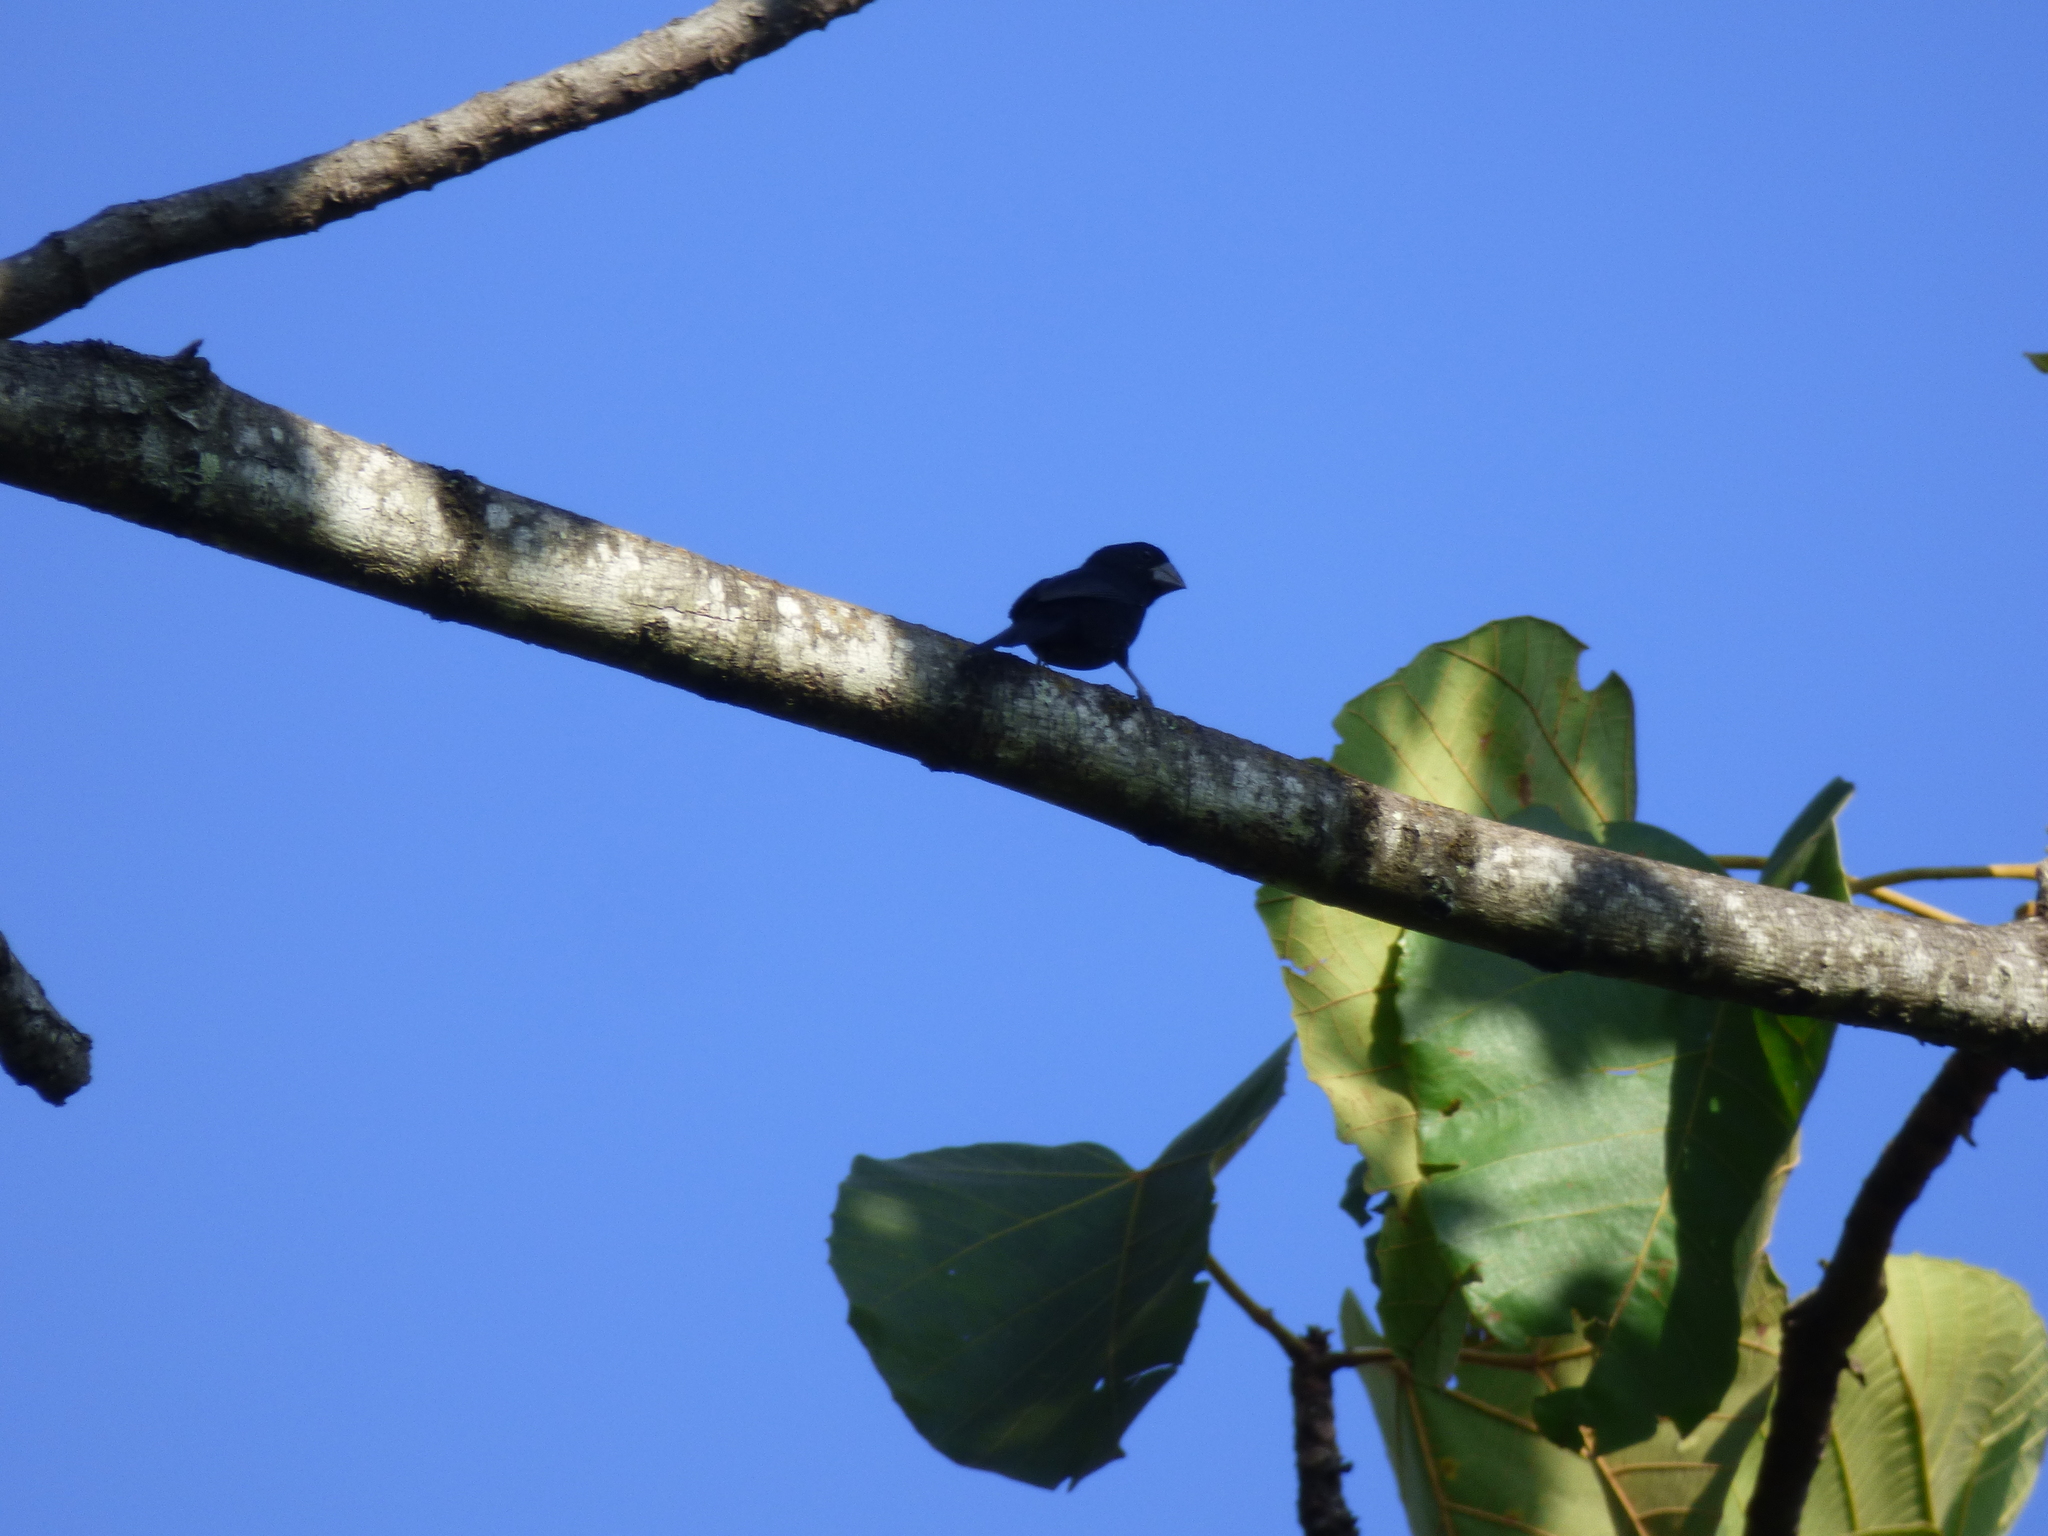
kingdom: Animalia
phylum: Chordata
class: Aves
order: Passeriformes
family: Thraupidae
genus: Sporophila
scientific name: Sporophila funerea
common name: Thick-billed seed-finch
